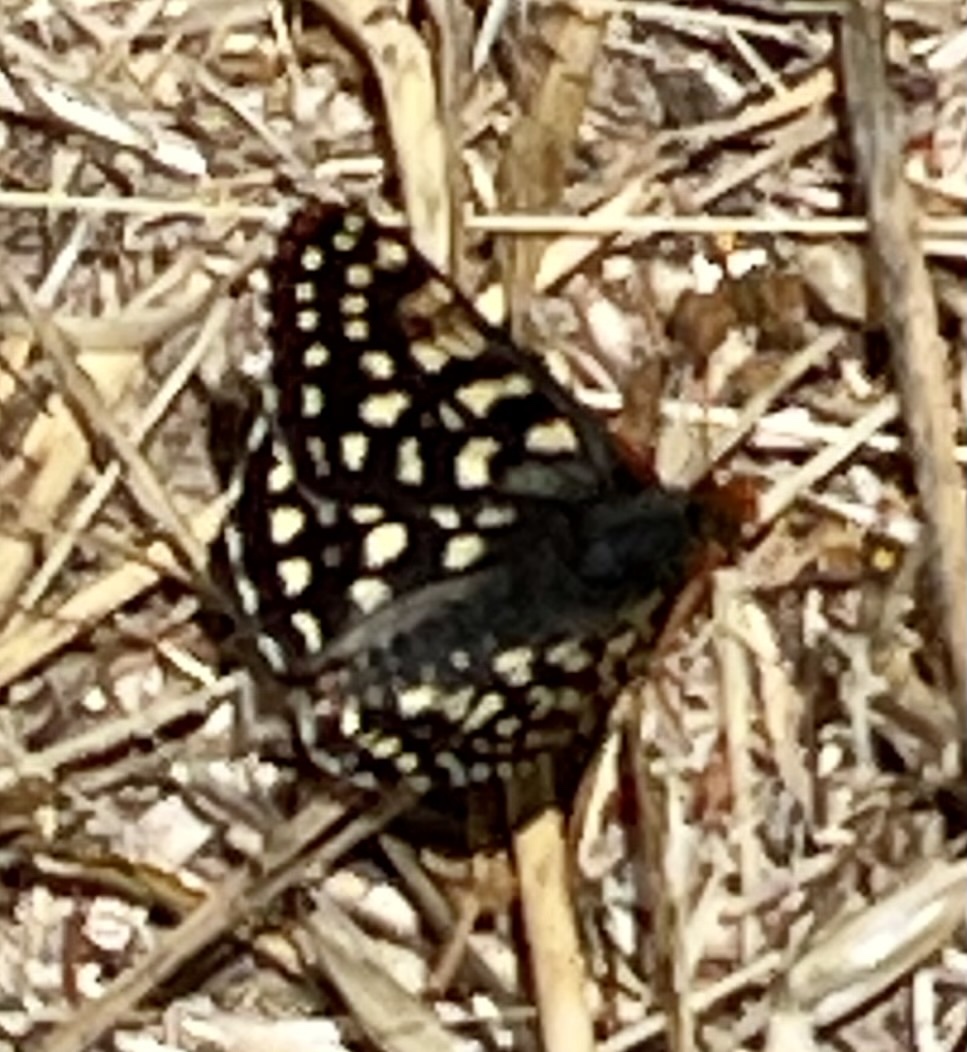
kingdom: Animalia
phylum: Arthropoda
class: Insecta
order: Lepidoptera
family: Nymphalidae
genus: Occidryas
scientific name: Occidryas chalcedona
